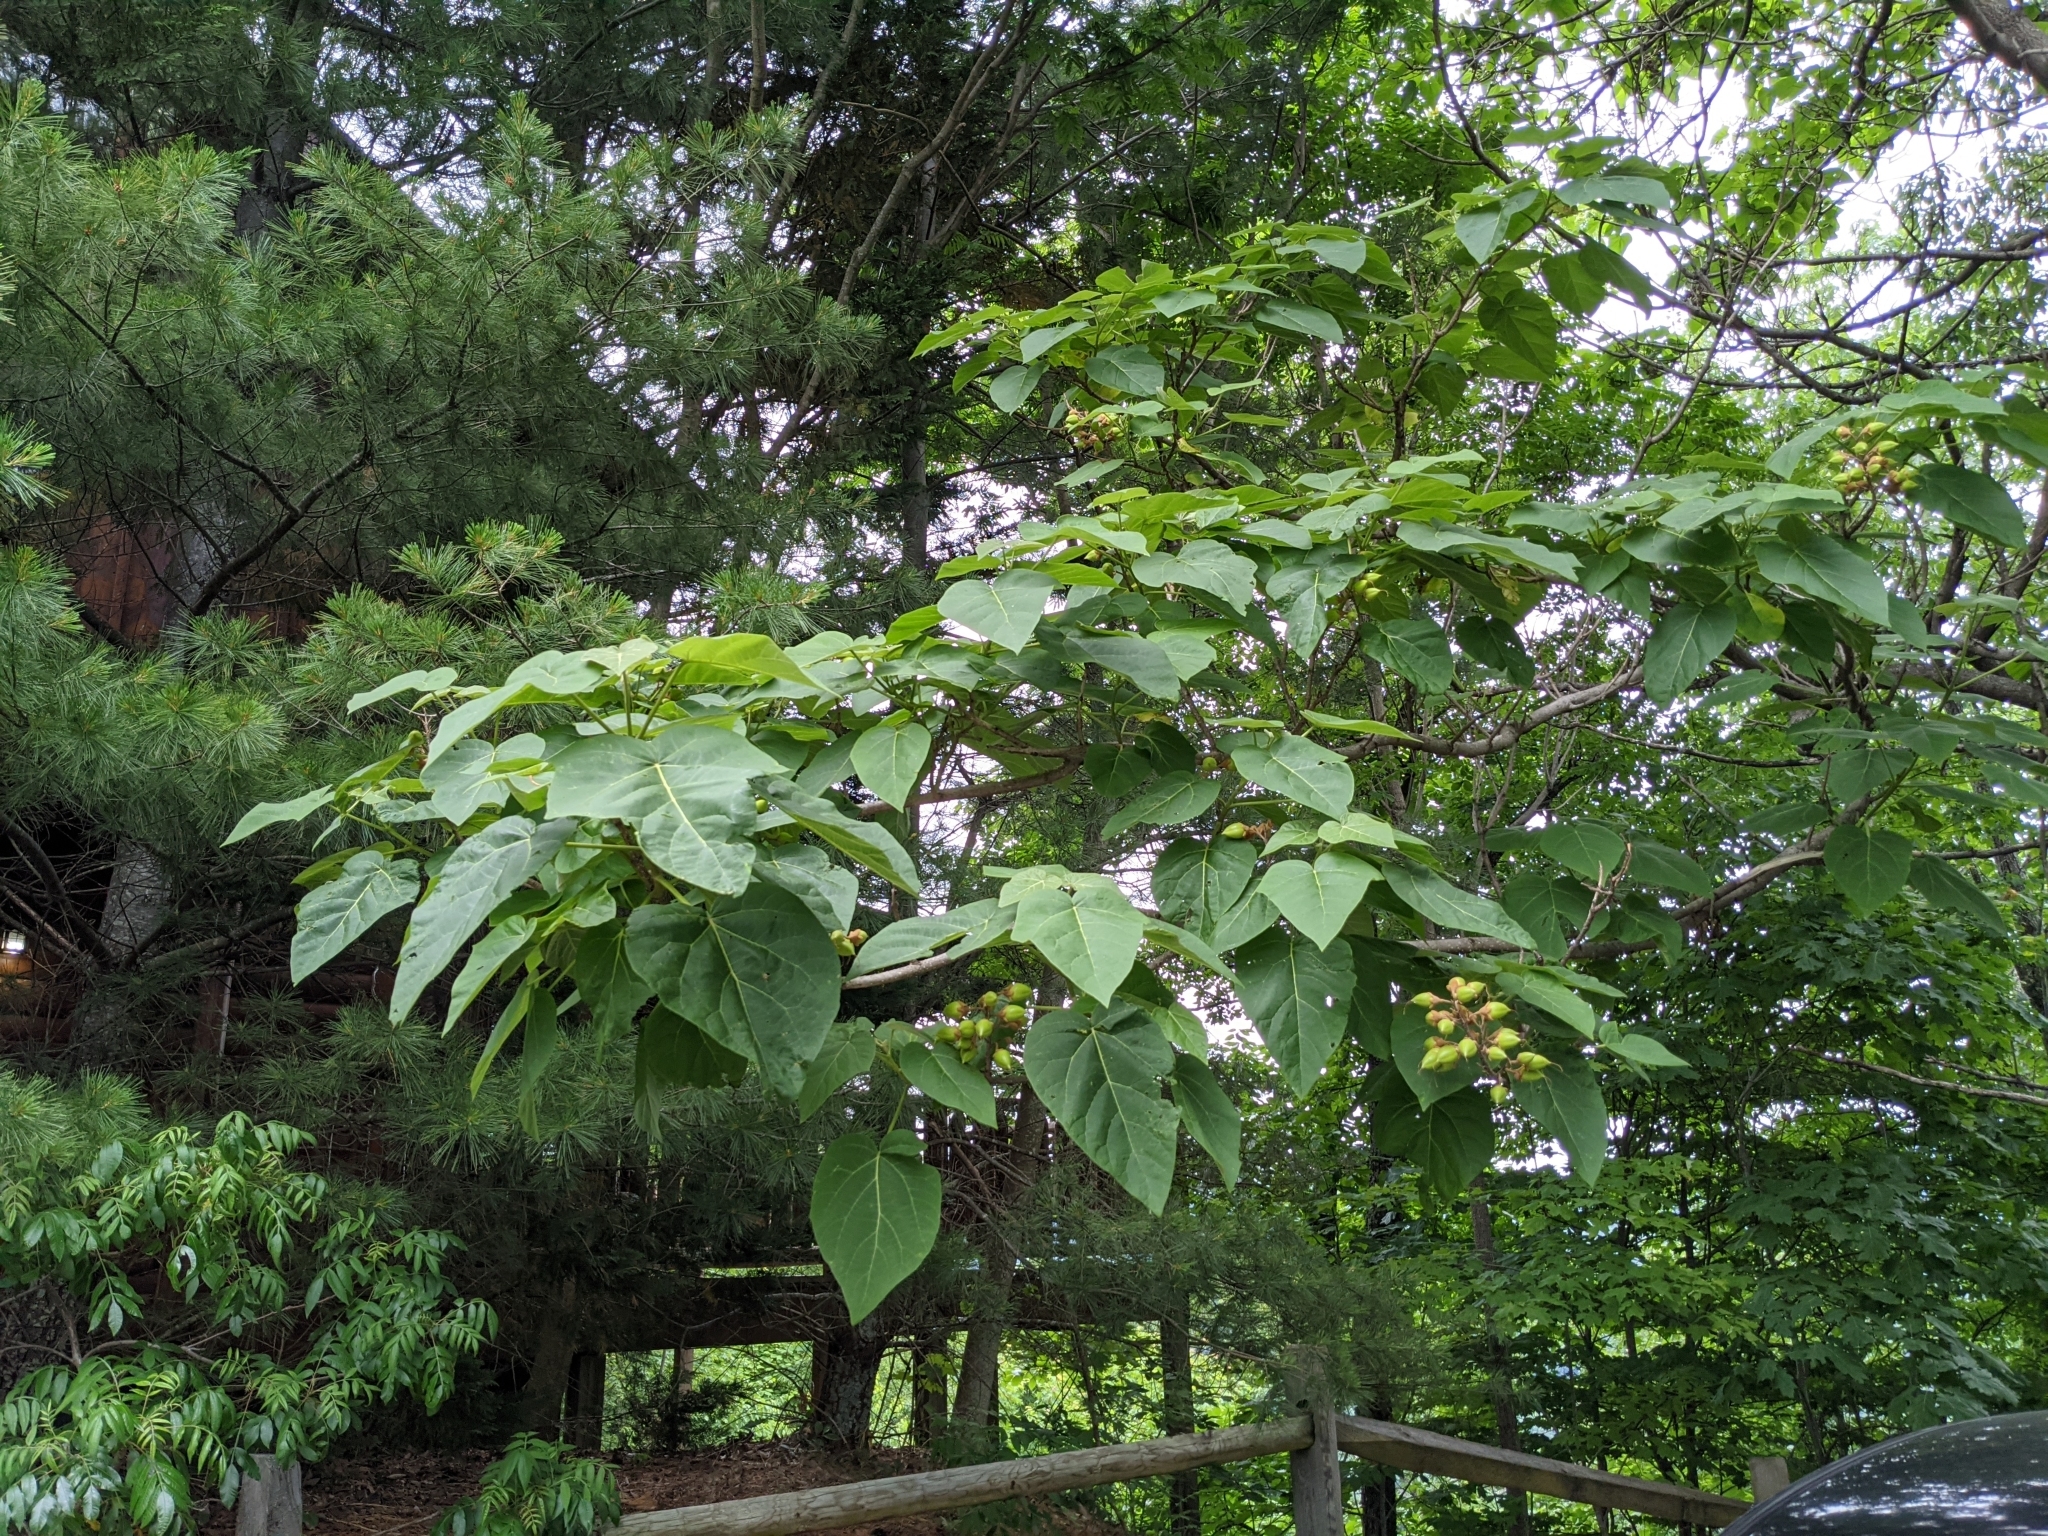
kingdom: Plantae
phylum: Tracheophyta
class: Magnoliopsida
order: Lamiales
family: Paulowniaceae
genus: Paulownia
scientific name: Paulownia tomentosa
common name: Foxglove-tree
